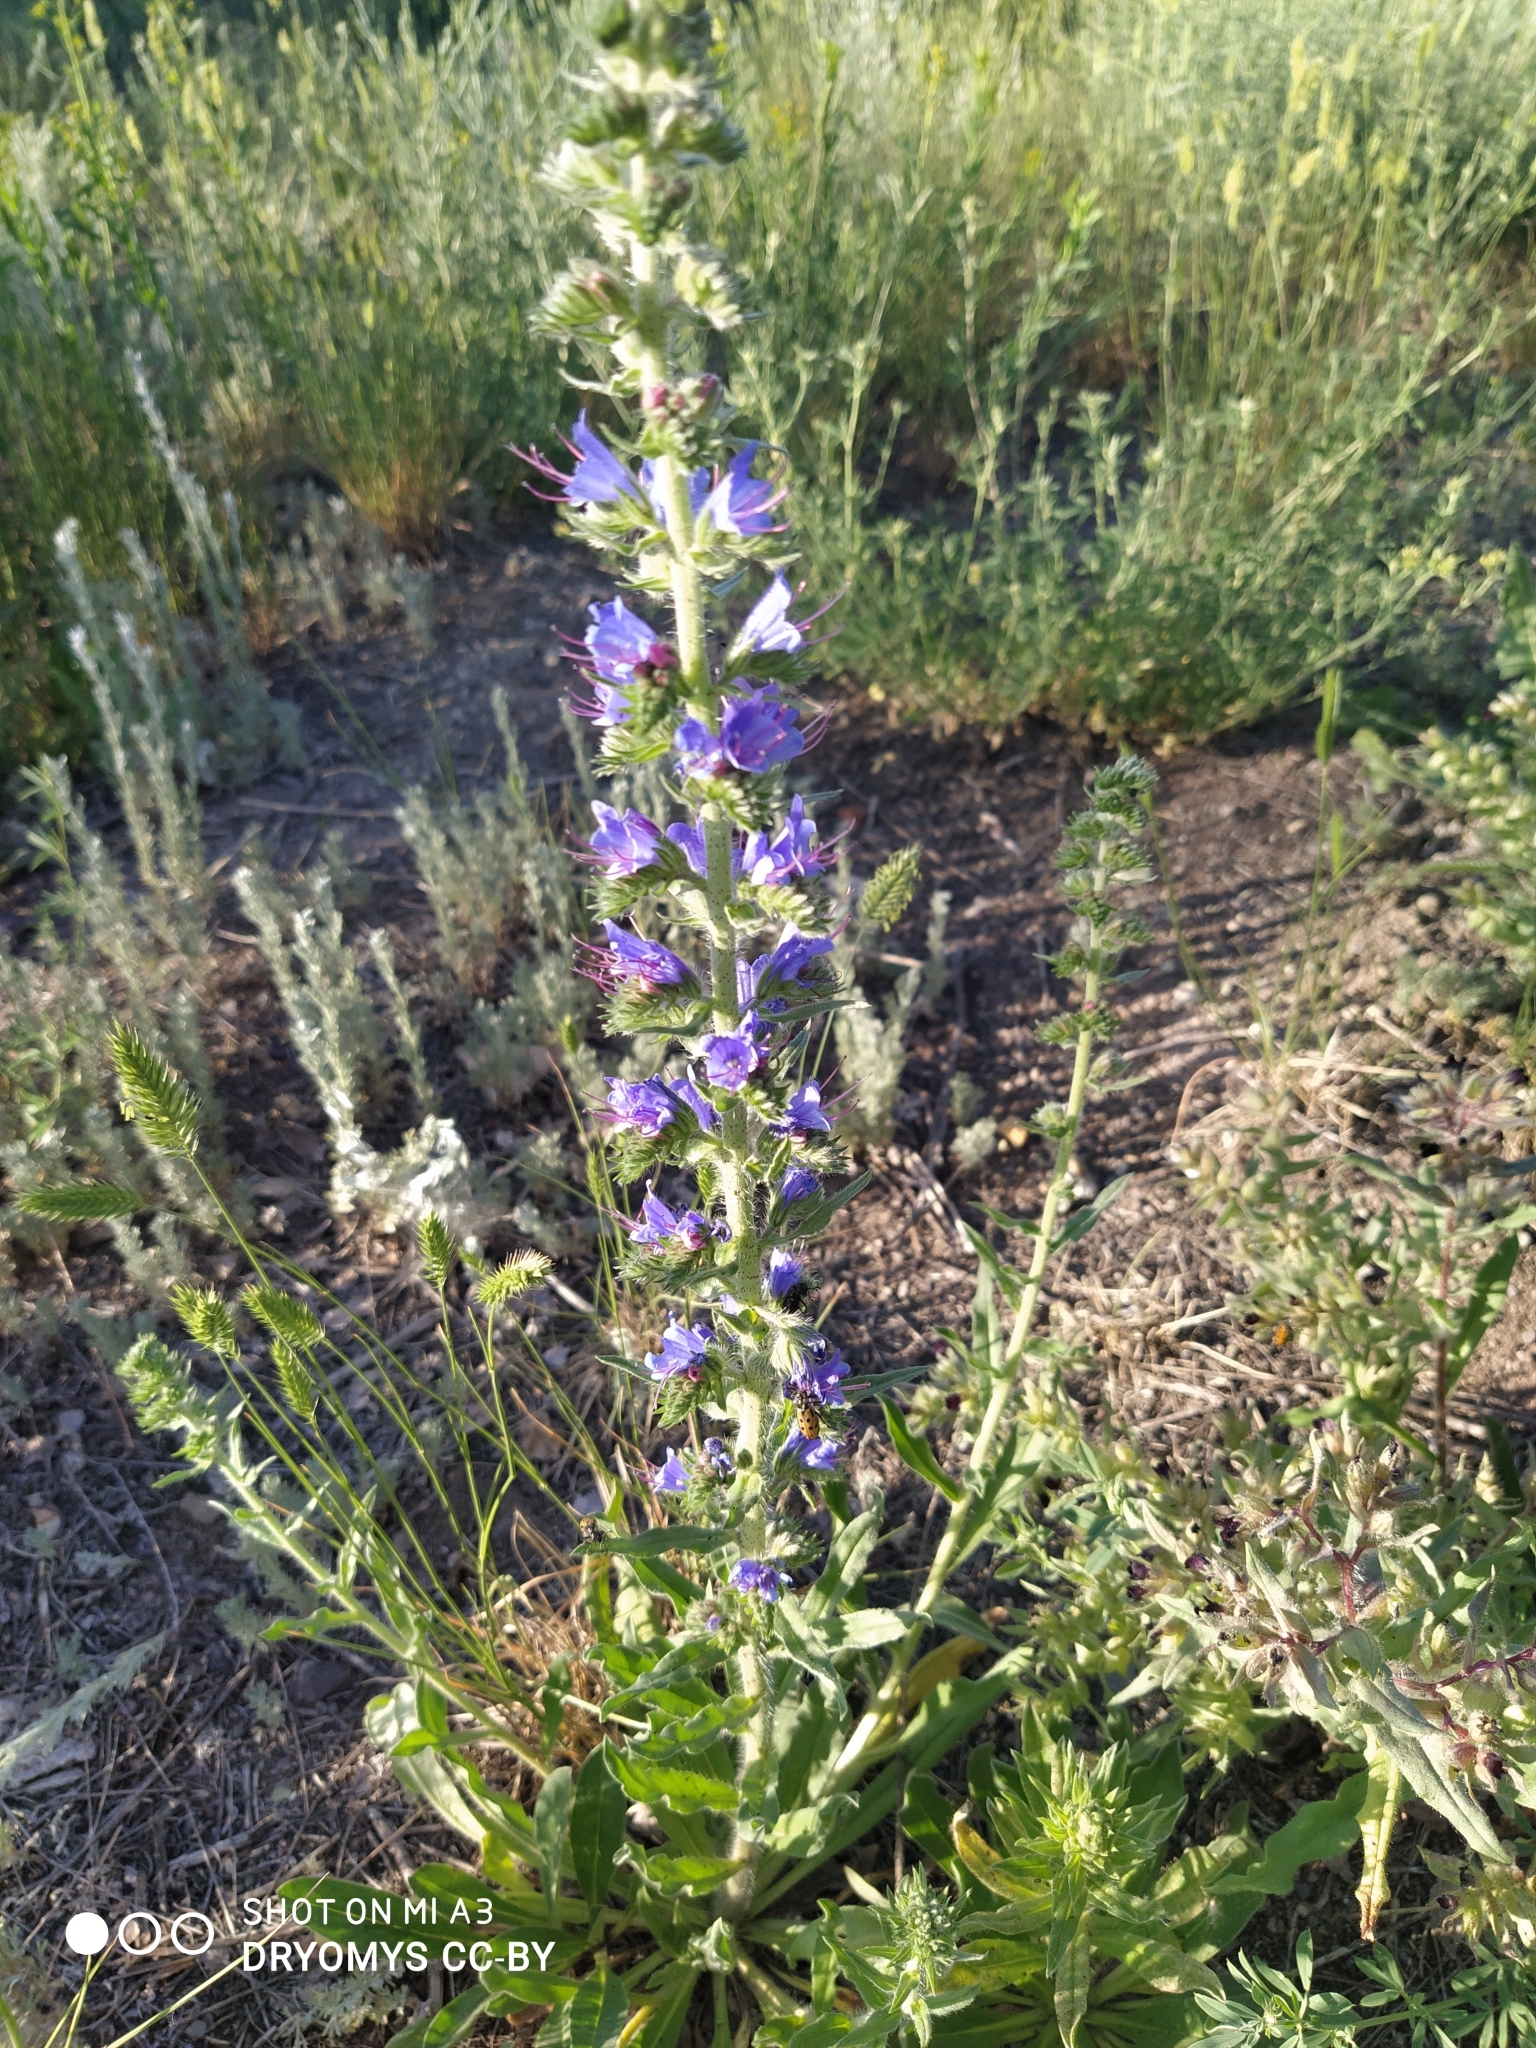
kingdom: Plantae
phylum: Tracheophyta
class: Magnoliopsida
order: Boraginales
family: Boraginaceae
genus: Echium
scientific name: Echium vulgare
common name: Common viper's bugloss
